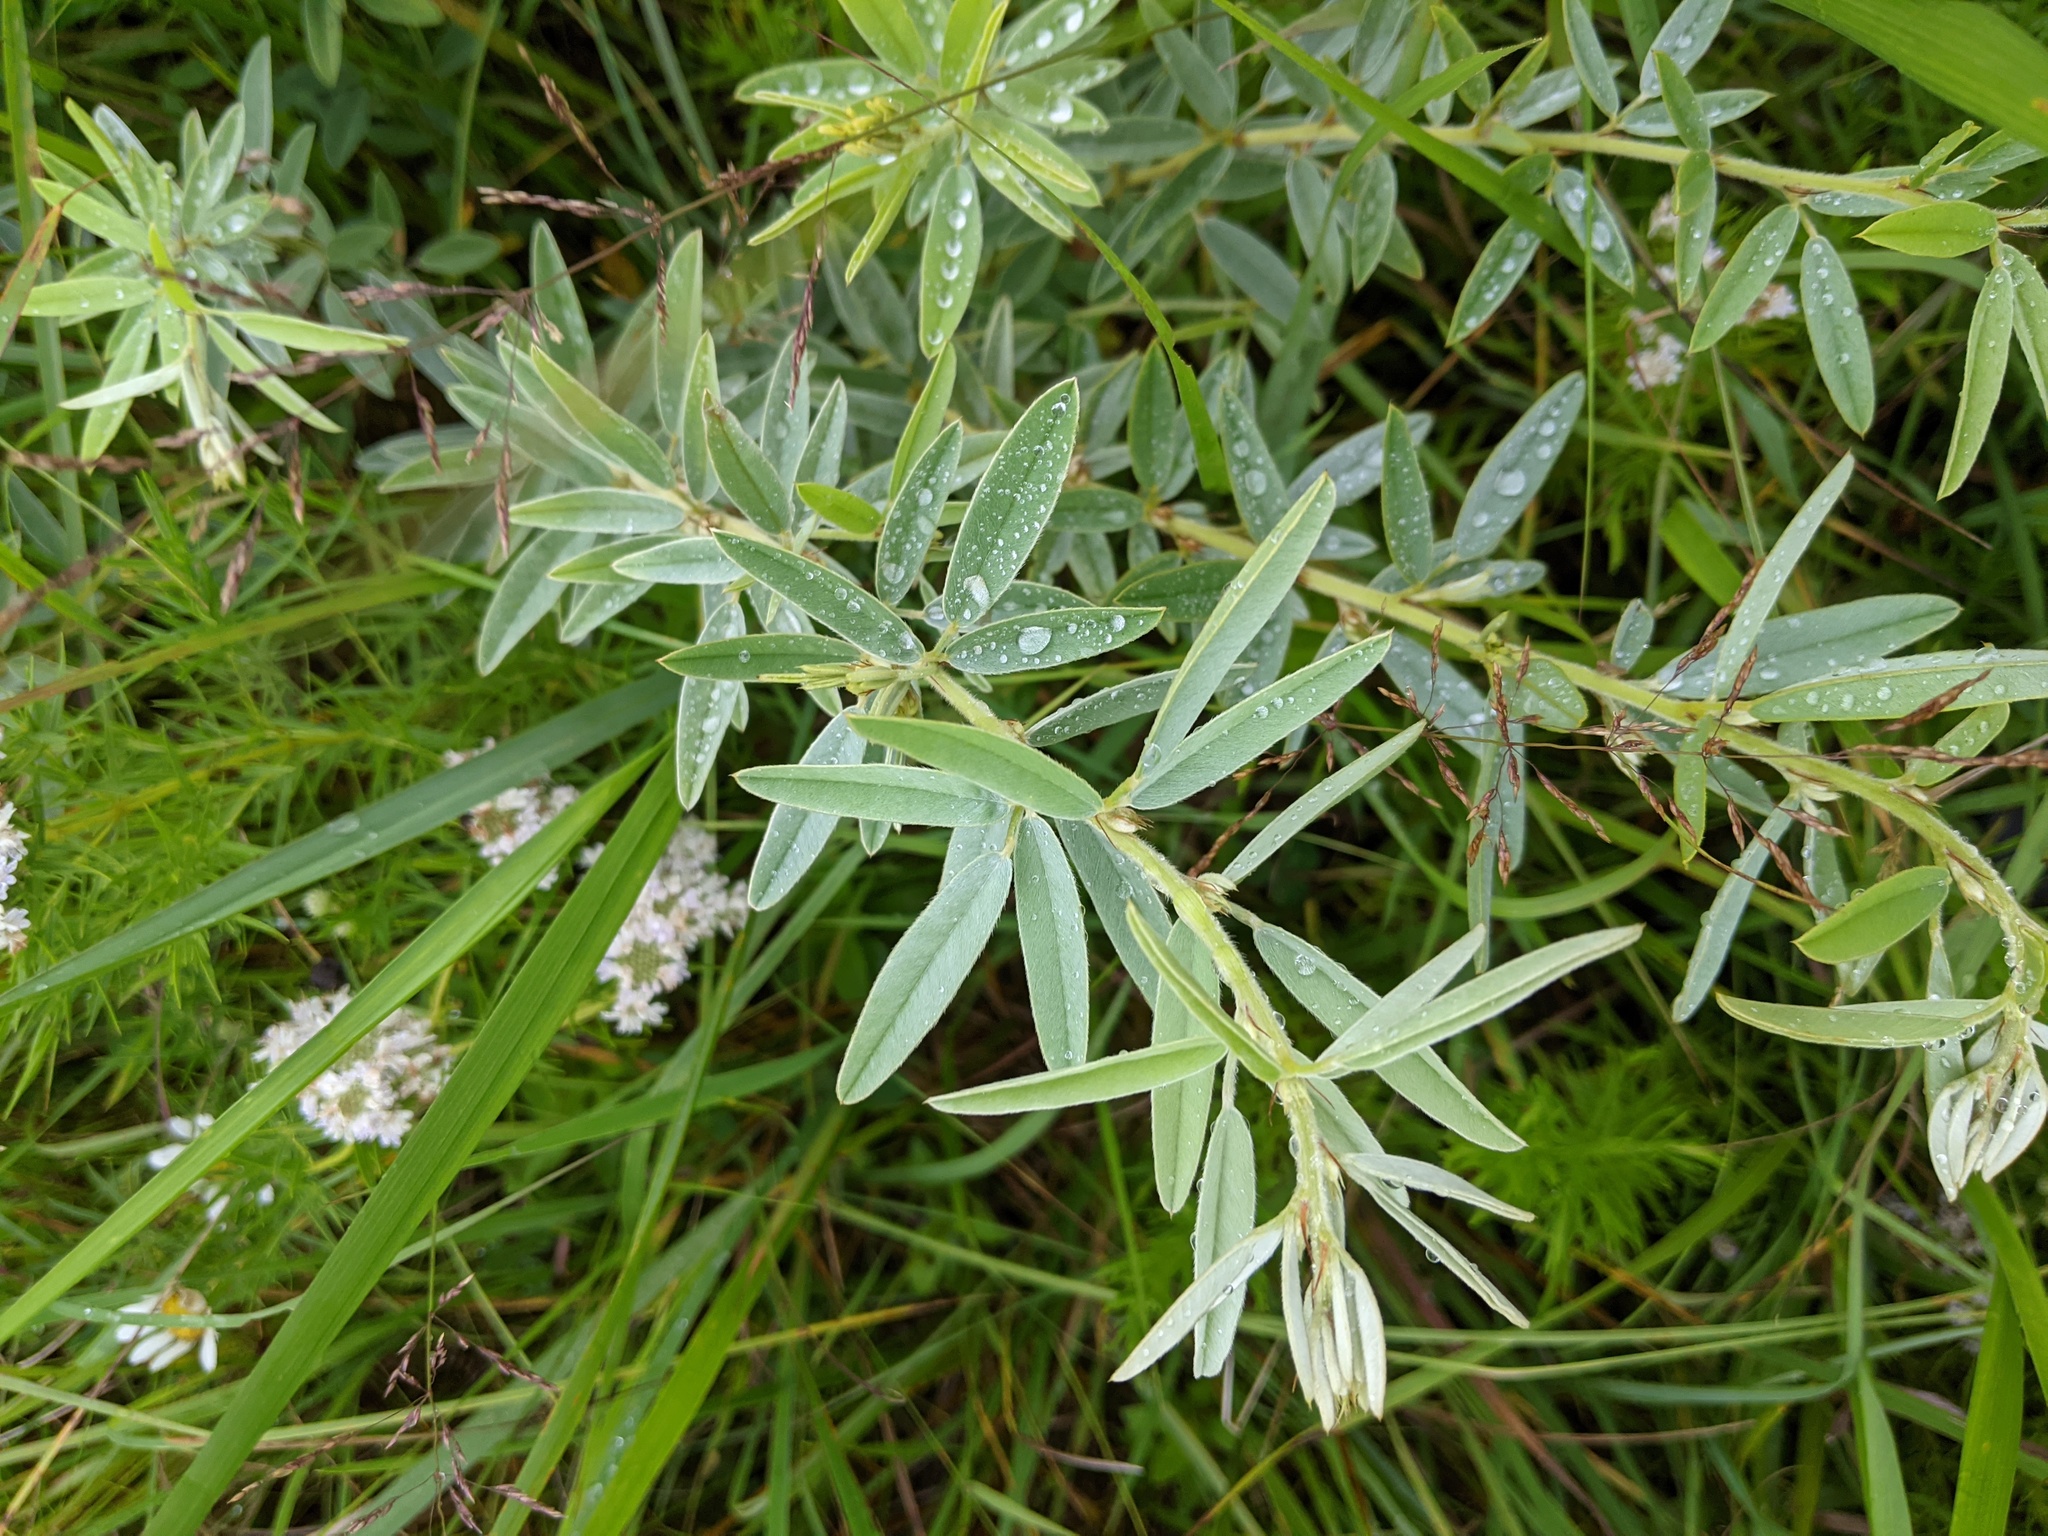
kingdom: Plantae
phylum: Tracheophyta
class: Magnoliopsida
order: Fabales
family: Fabaceae
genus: Lespedeza
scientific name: Lespedeza capitata
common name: Dusty clover
